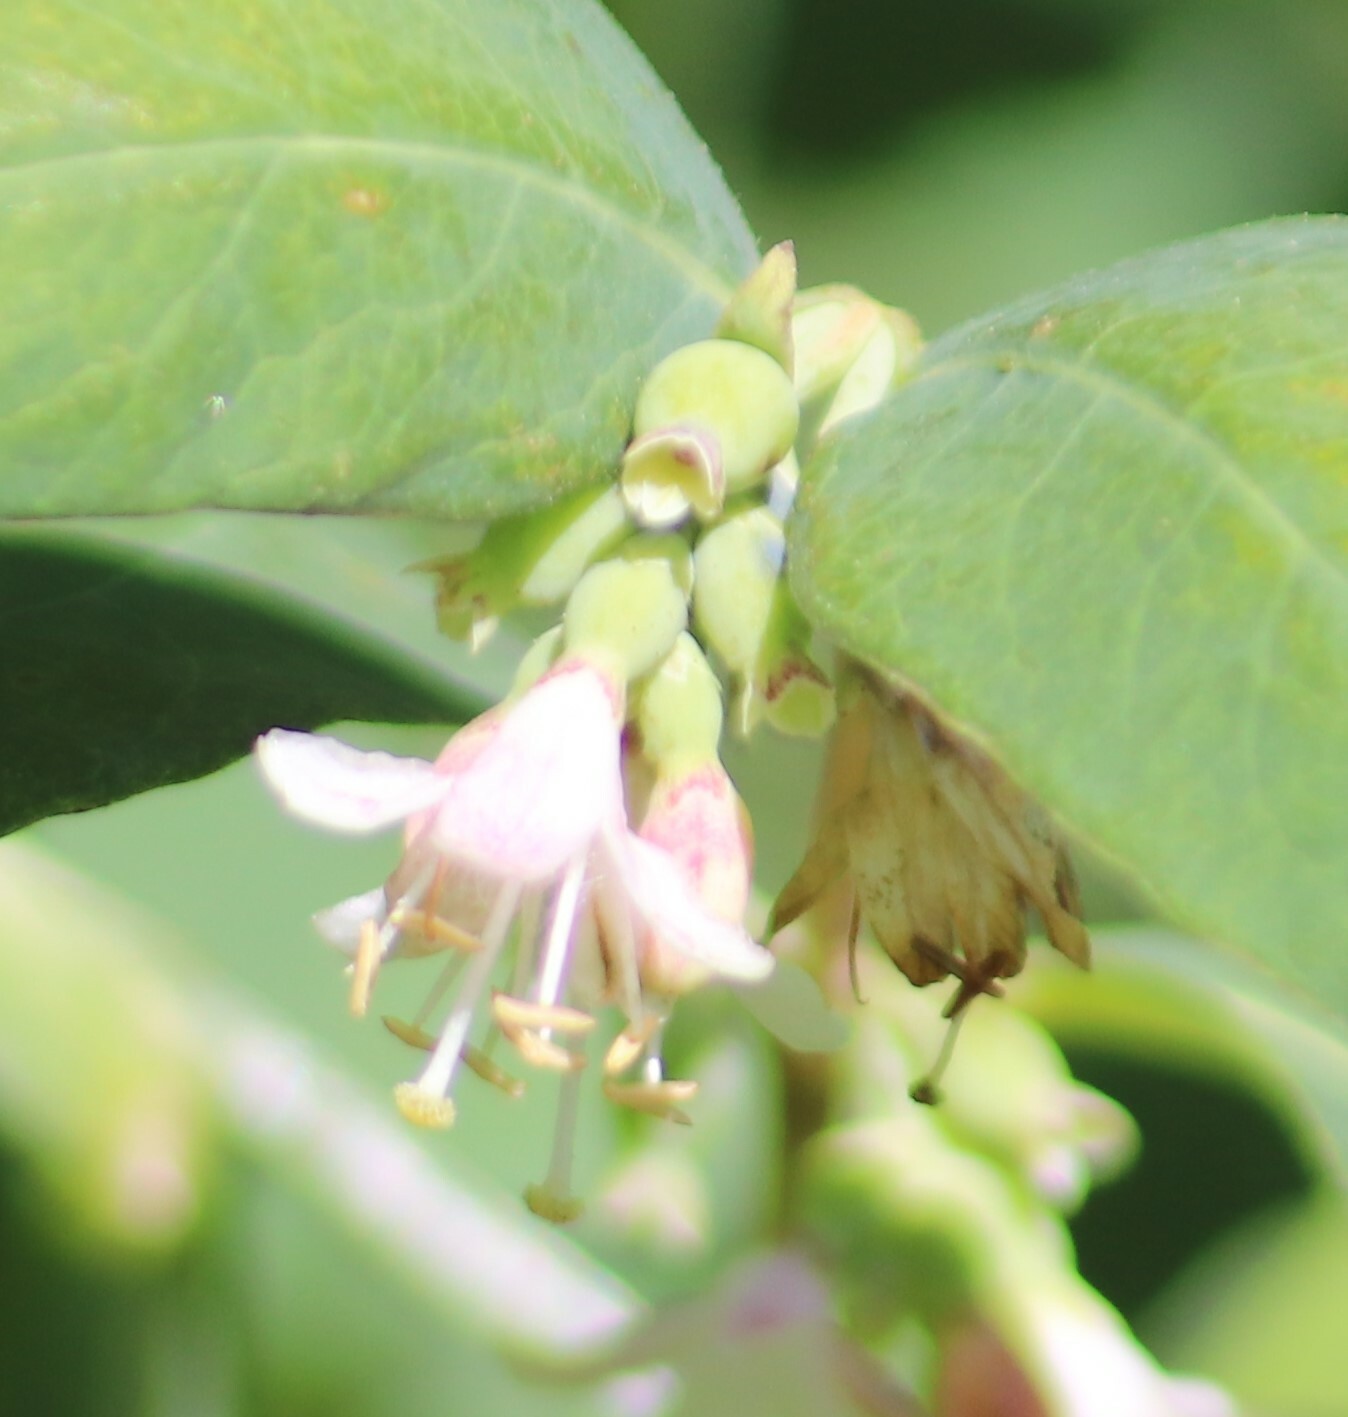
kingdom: Plantae
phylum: Tracheophyta
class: Magnoliopsida
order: Dipsacales
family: Caprifoliaceae
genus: Symphoricarpos
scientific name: Symphoricarpos occidentalis
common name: Wolfberry
